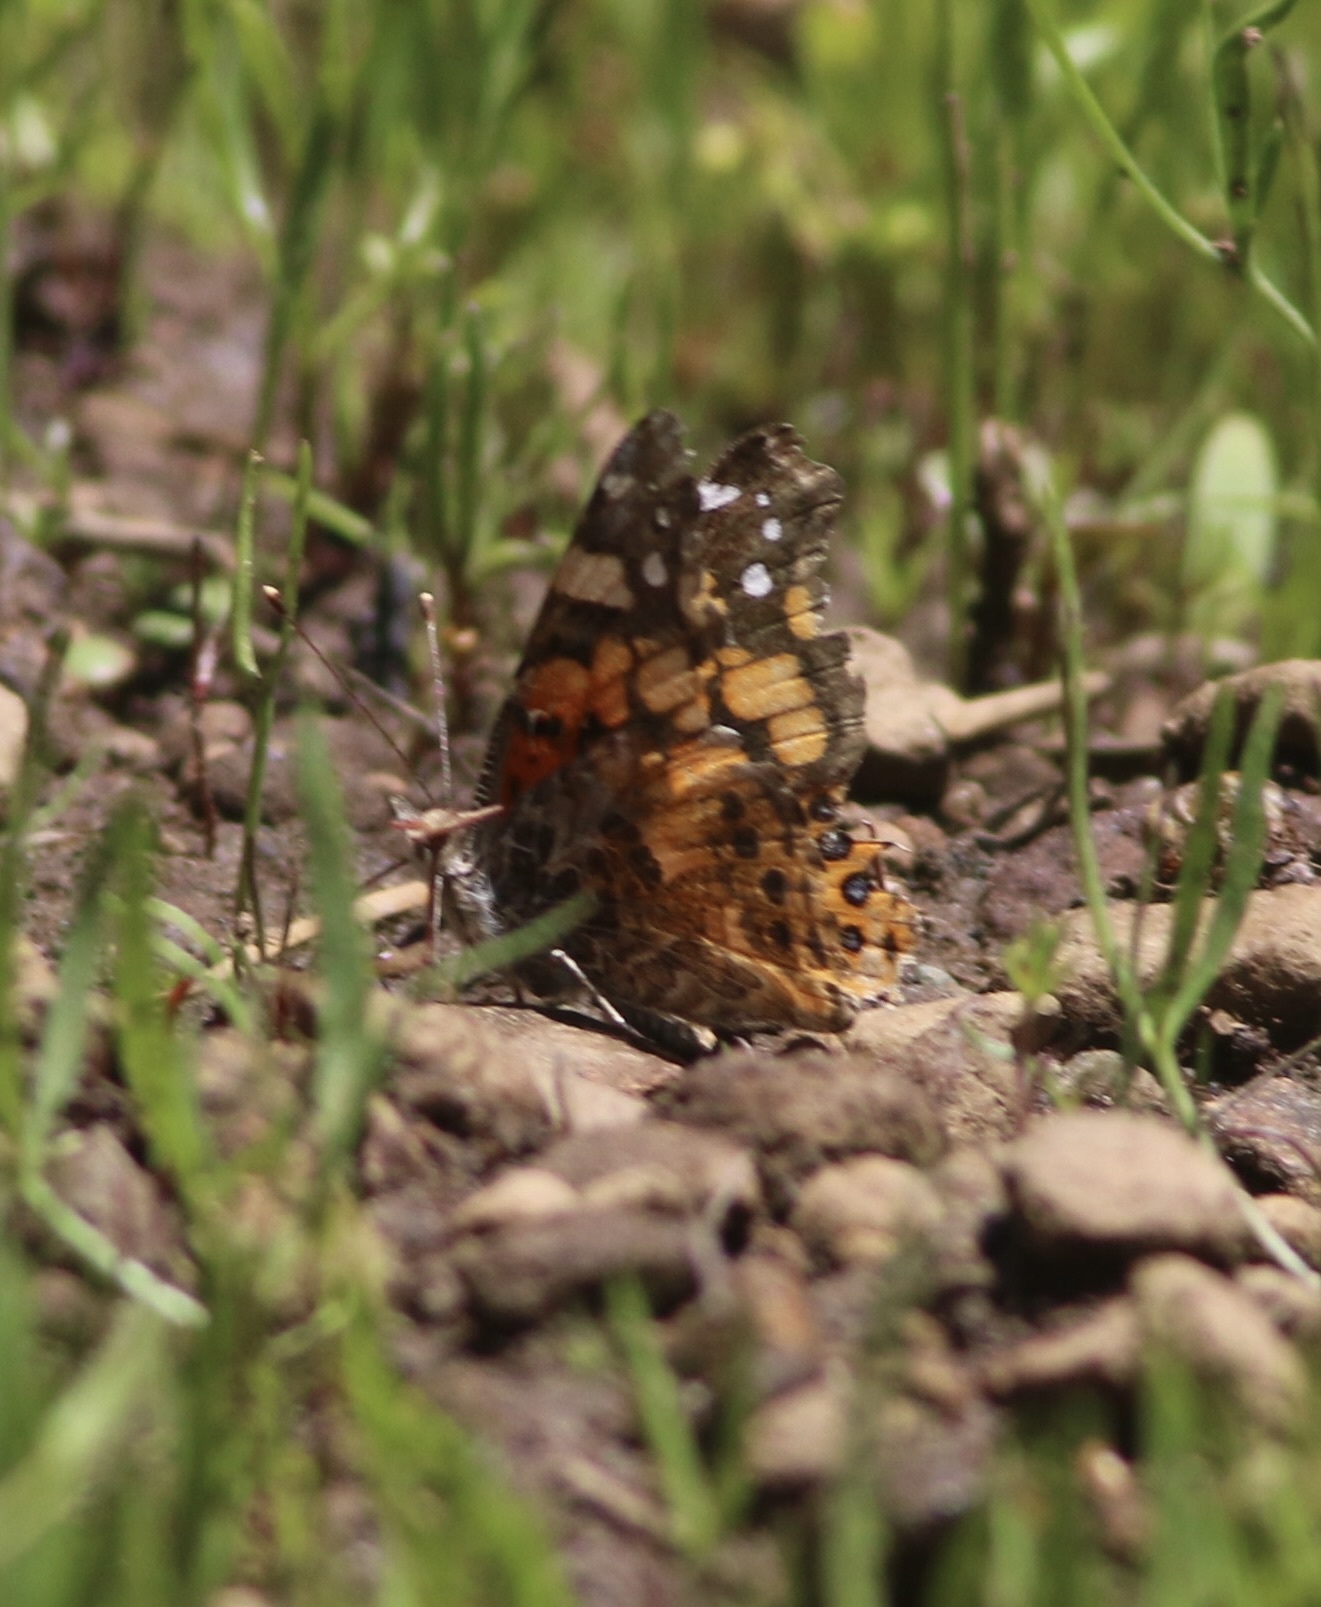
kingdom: Animalia
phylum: Arthropoda
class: Insecta
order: Lepidoptera
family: Nymphalidae
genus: Vanessa
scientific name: Vanessa annabella
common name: West coast lady
